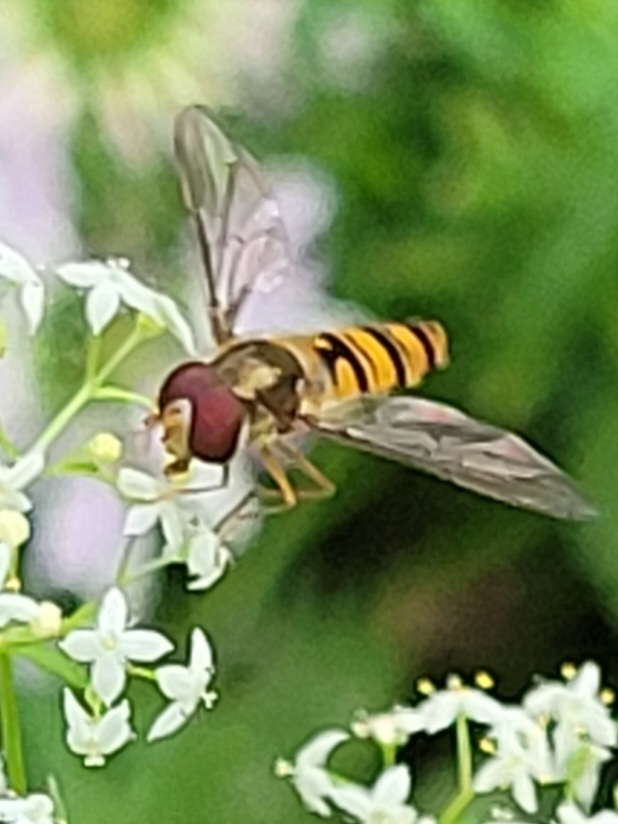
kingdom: Animalia
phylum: Arthropoda
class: Insecta
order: Diptera
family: Syrphidae
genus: Episyrphus
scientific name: Episyrphus balteatus
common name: Marmalade hoverfly
